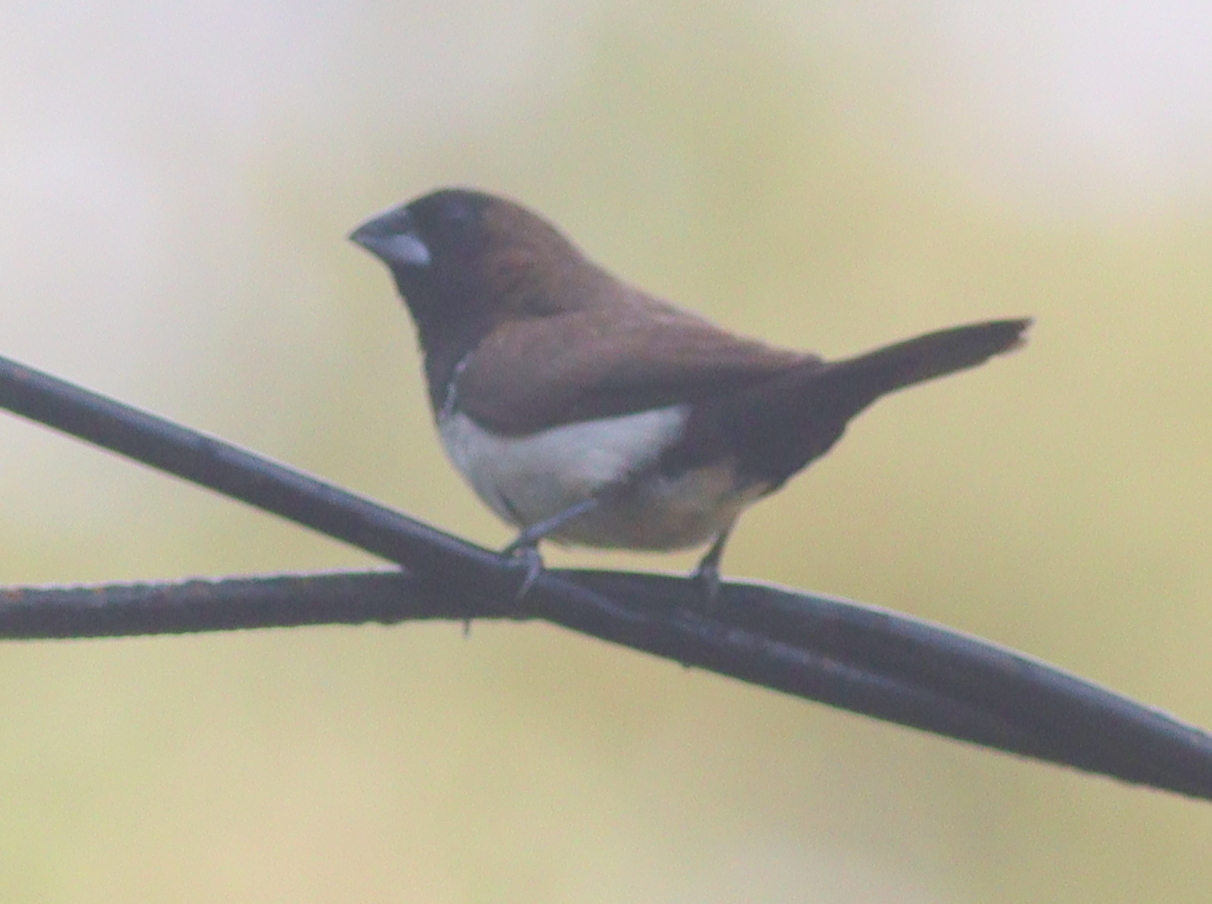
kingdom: Animalia
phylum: Chordata
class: Aves
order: Passeriformes
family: Estrildidae
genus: Lonchura
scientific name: Lonchura leucogastroides
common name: Javan munia
